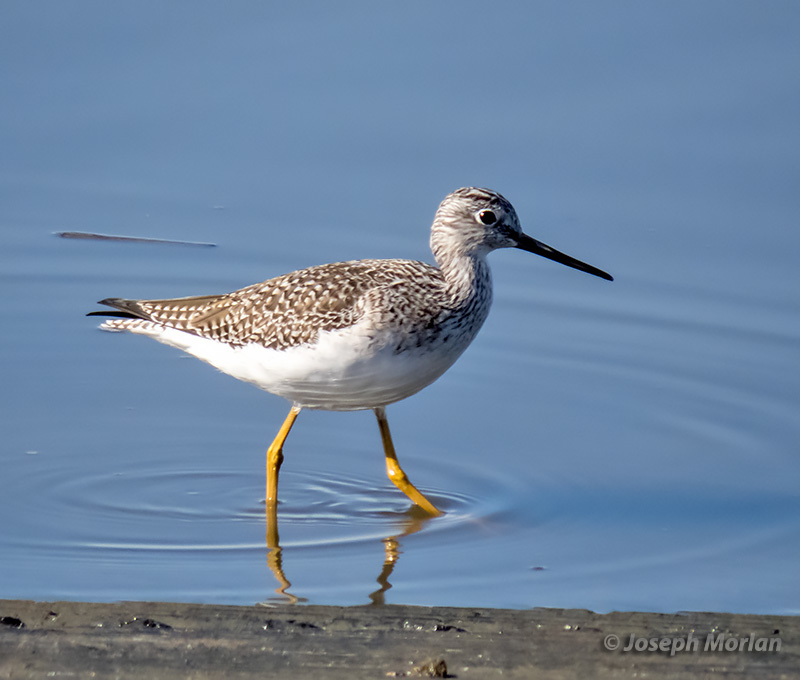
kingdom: Animalia
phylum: Chordata
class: Aves
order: Charadriiformes
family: Scolopacidae
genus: Tringa
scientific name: Tringa melanoleuca
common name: Greater yellowlegs
